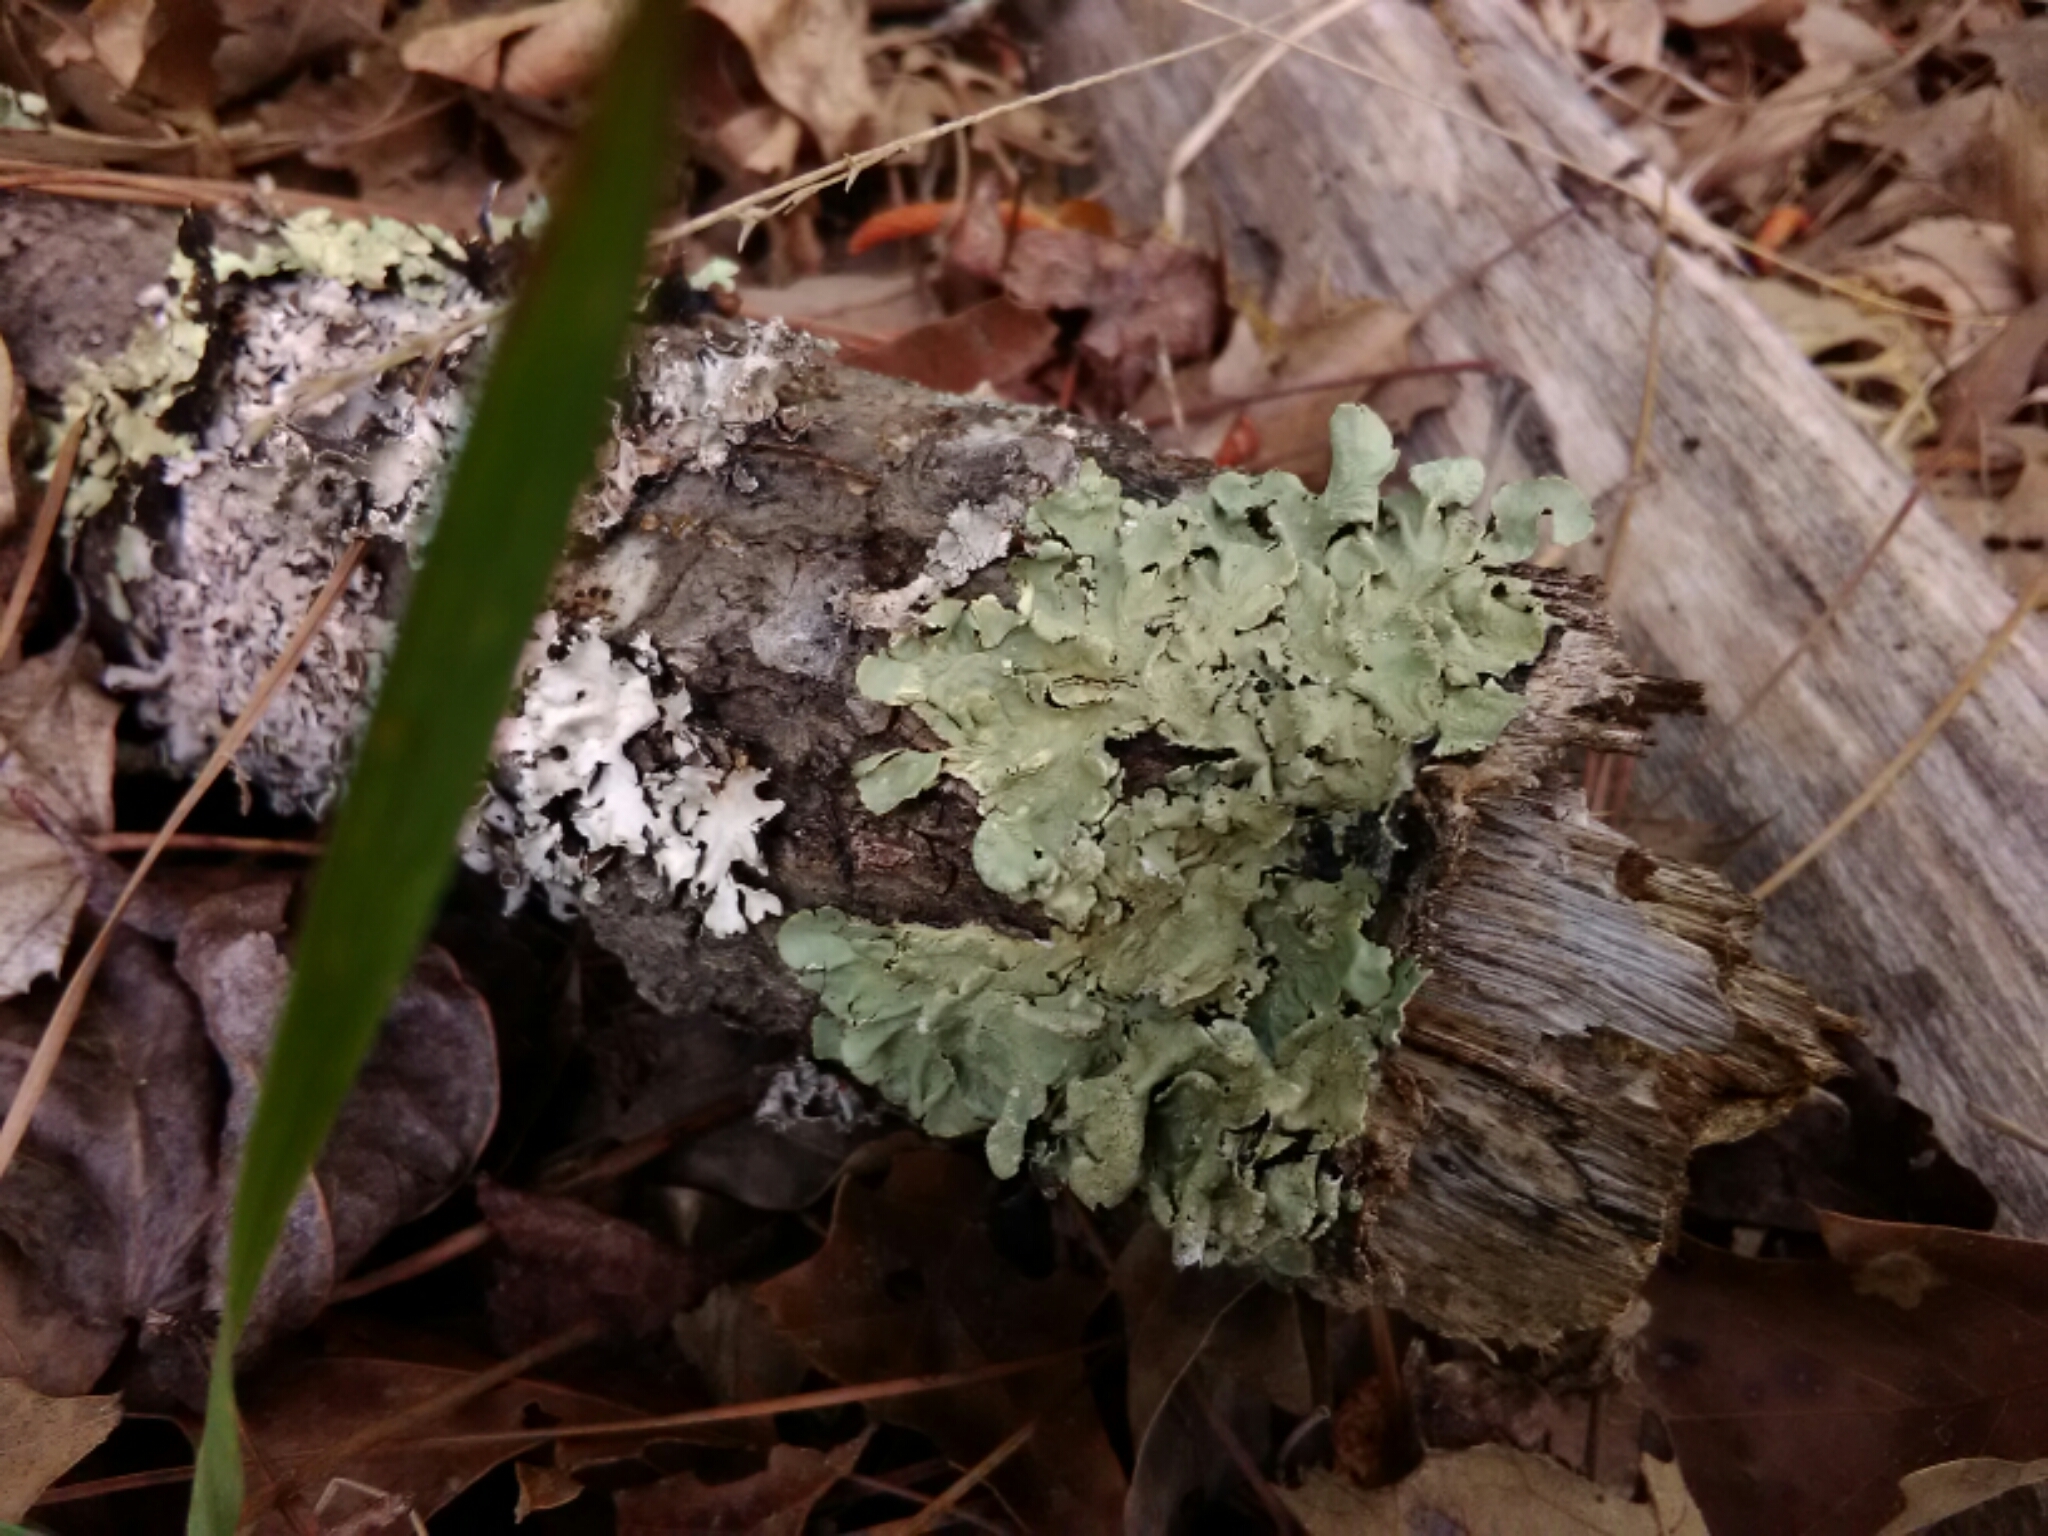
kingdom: Fungi
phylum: Ascomycota
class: Lecanoromycetes
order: Lecanorales
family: Parmeliaceae
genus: Flavoparmelia
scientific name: Flavoparmelia caperata
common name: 40-mile per hour lichen
